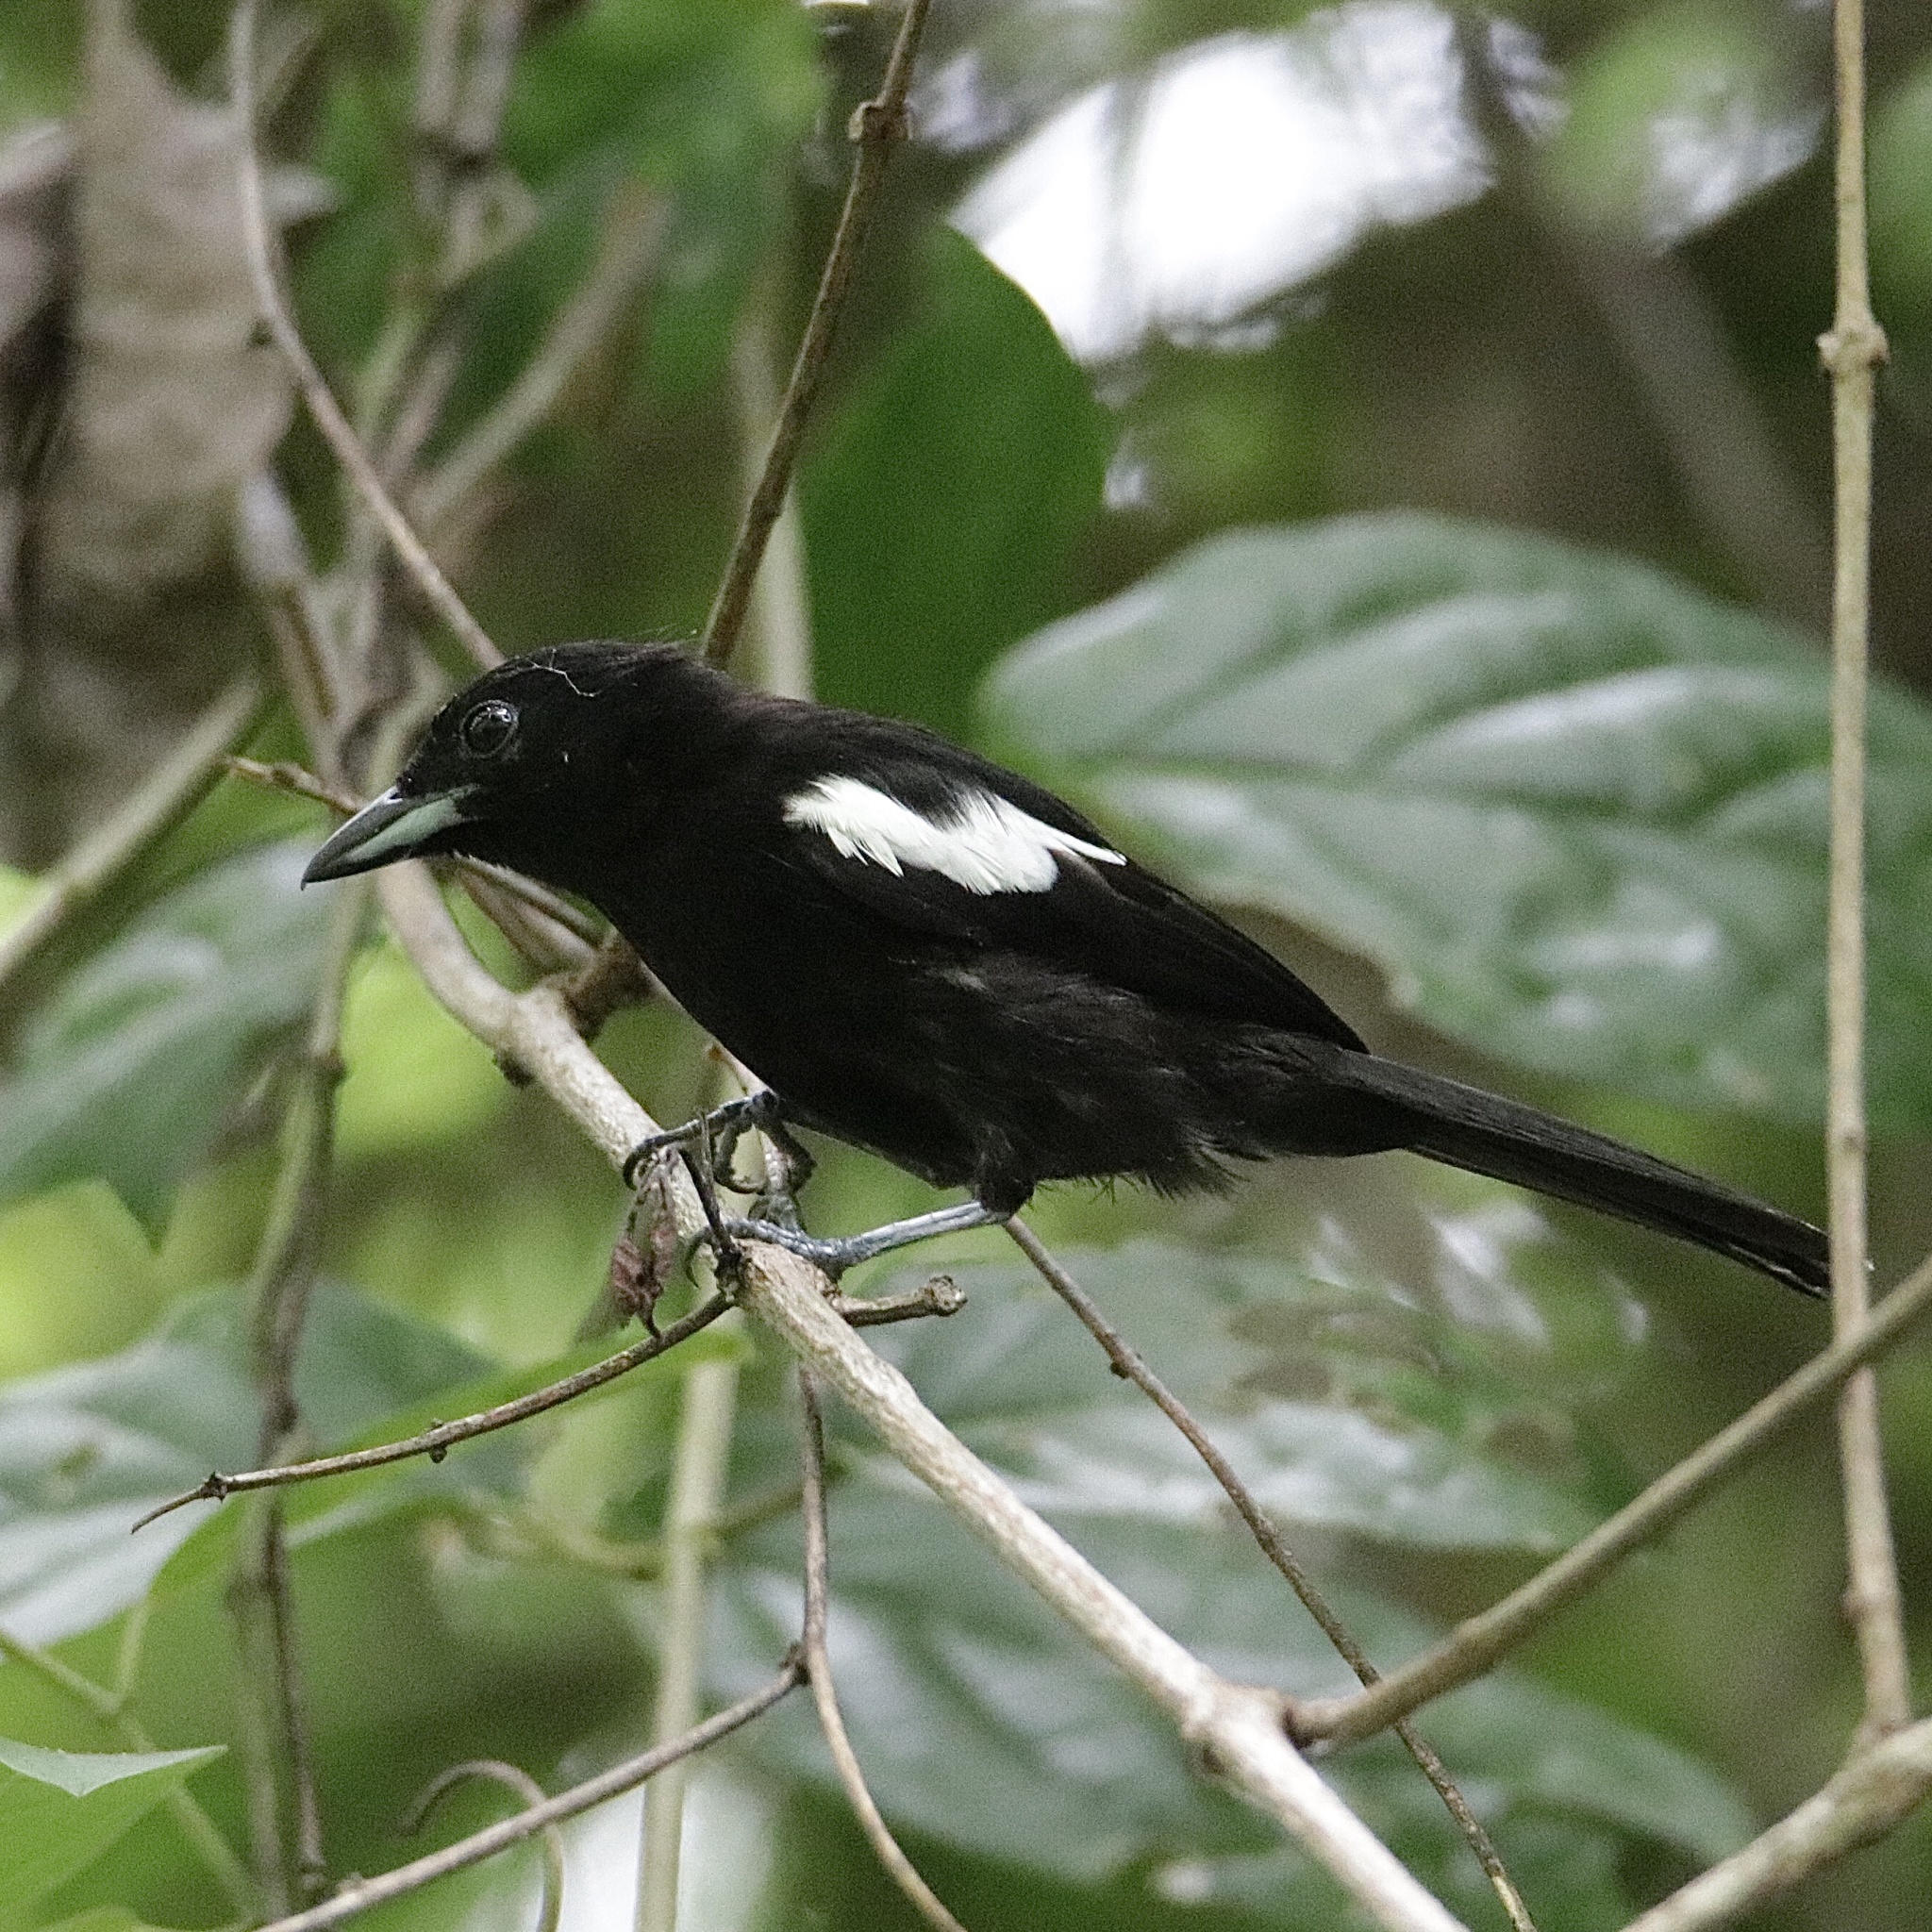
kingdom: Animalia
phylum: Chordata
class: Aves
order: Passeriformes
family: Thraupidae
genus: Loriotus
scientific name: Loriotus luctuosus
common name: White-shouldered tanager
